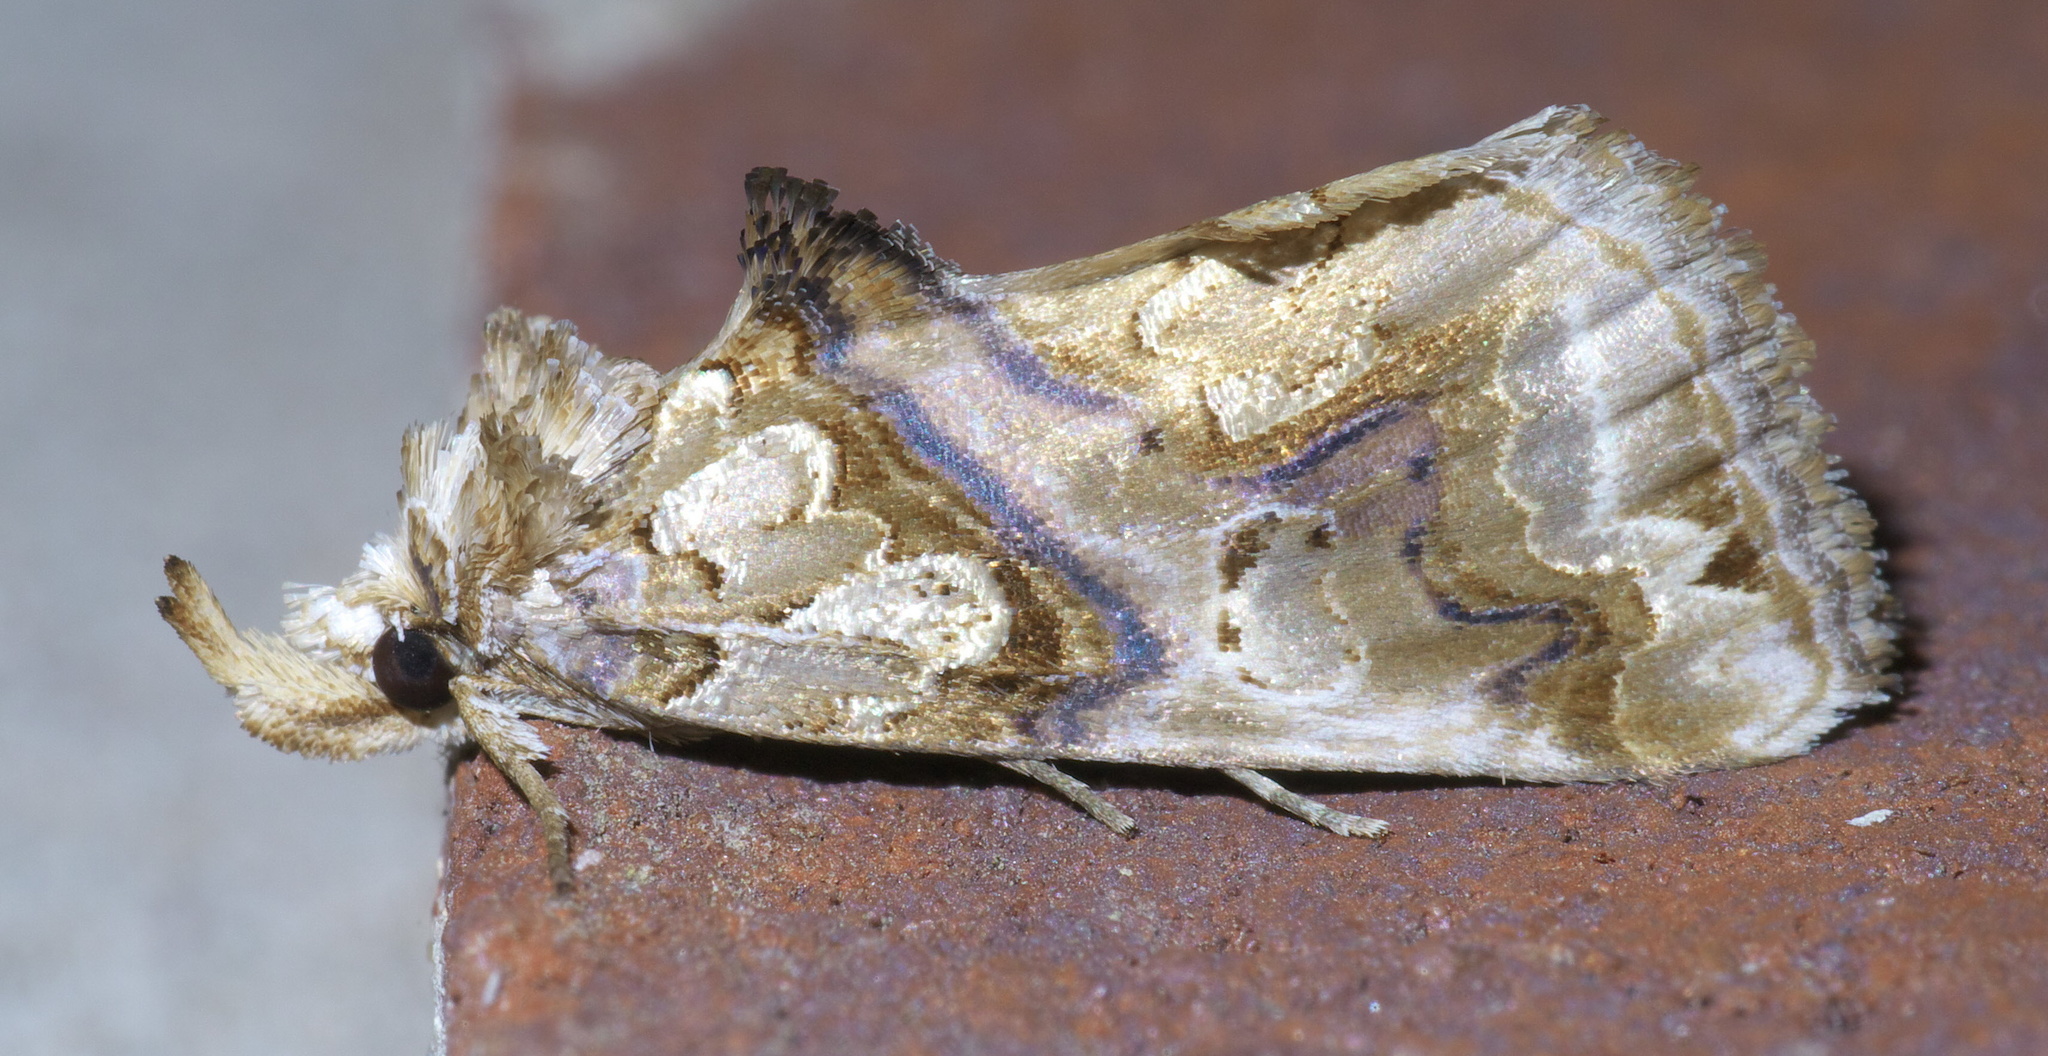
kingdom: Animalia
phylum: Arthropoda
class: Insecta
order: Lepidoptera
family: Erebidae
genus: Plusiodonta
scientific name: Plusiodonta compressipalpis
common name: Moonseed moth
